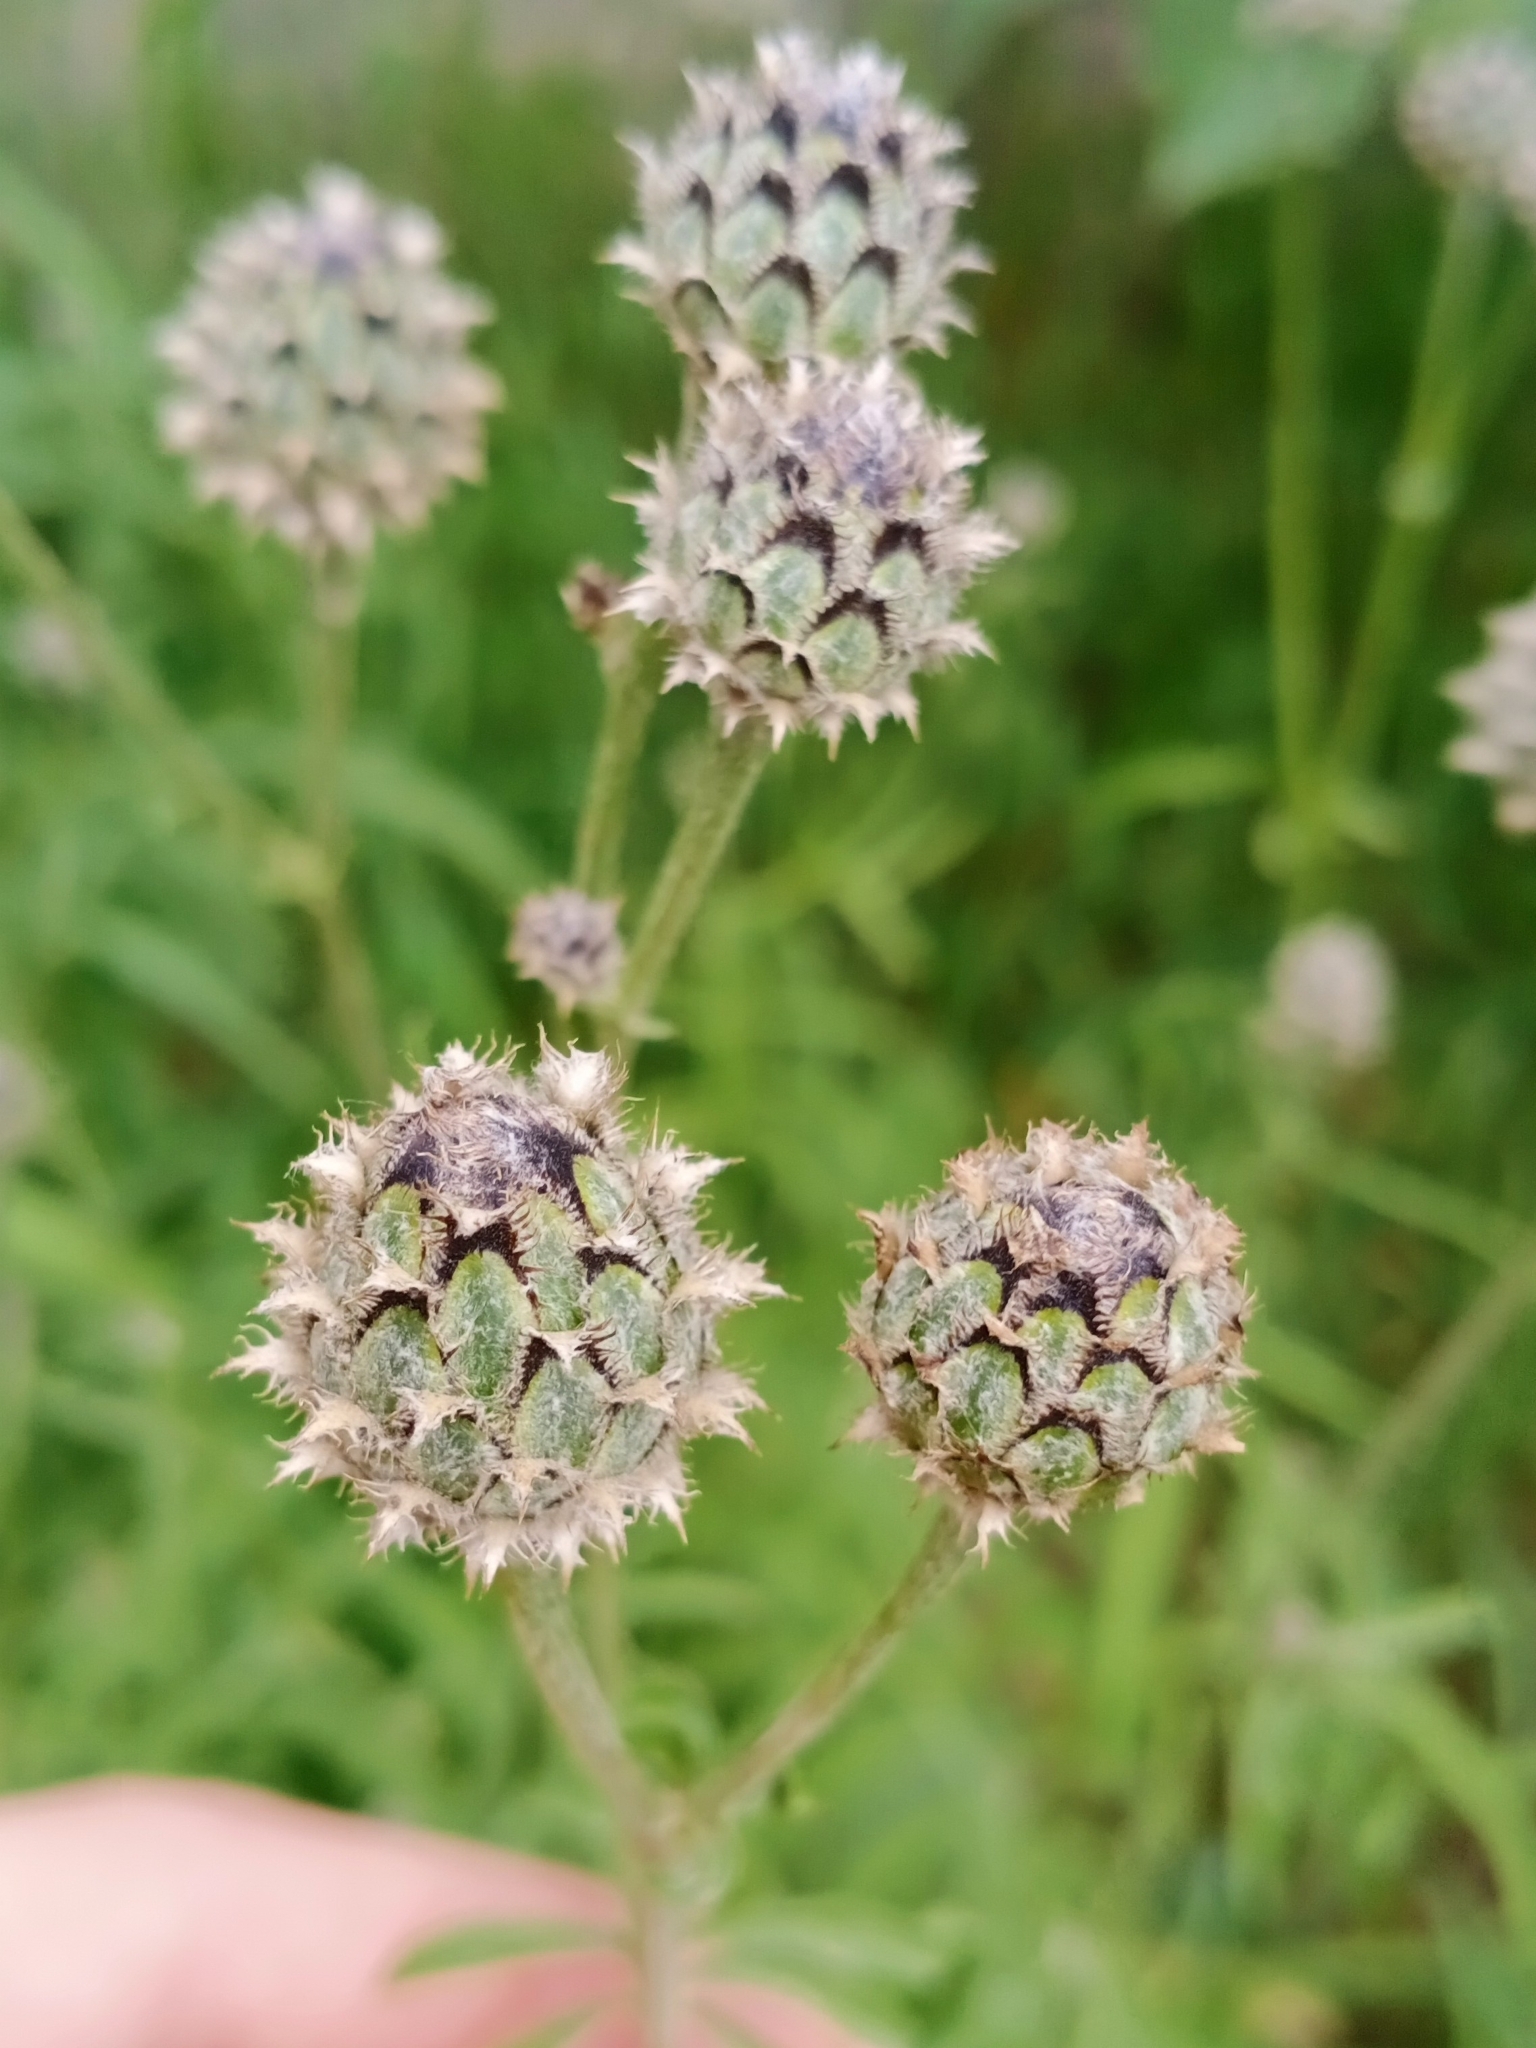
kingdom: Plantae
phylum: Tracheophyta
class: Magnoliopsida
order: Asterales
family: Asteraceae
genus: Centaurea
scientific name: Centaurea scabiosa
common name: Greater knapweed
